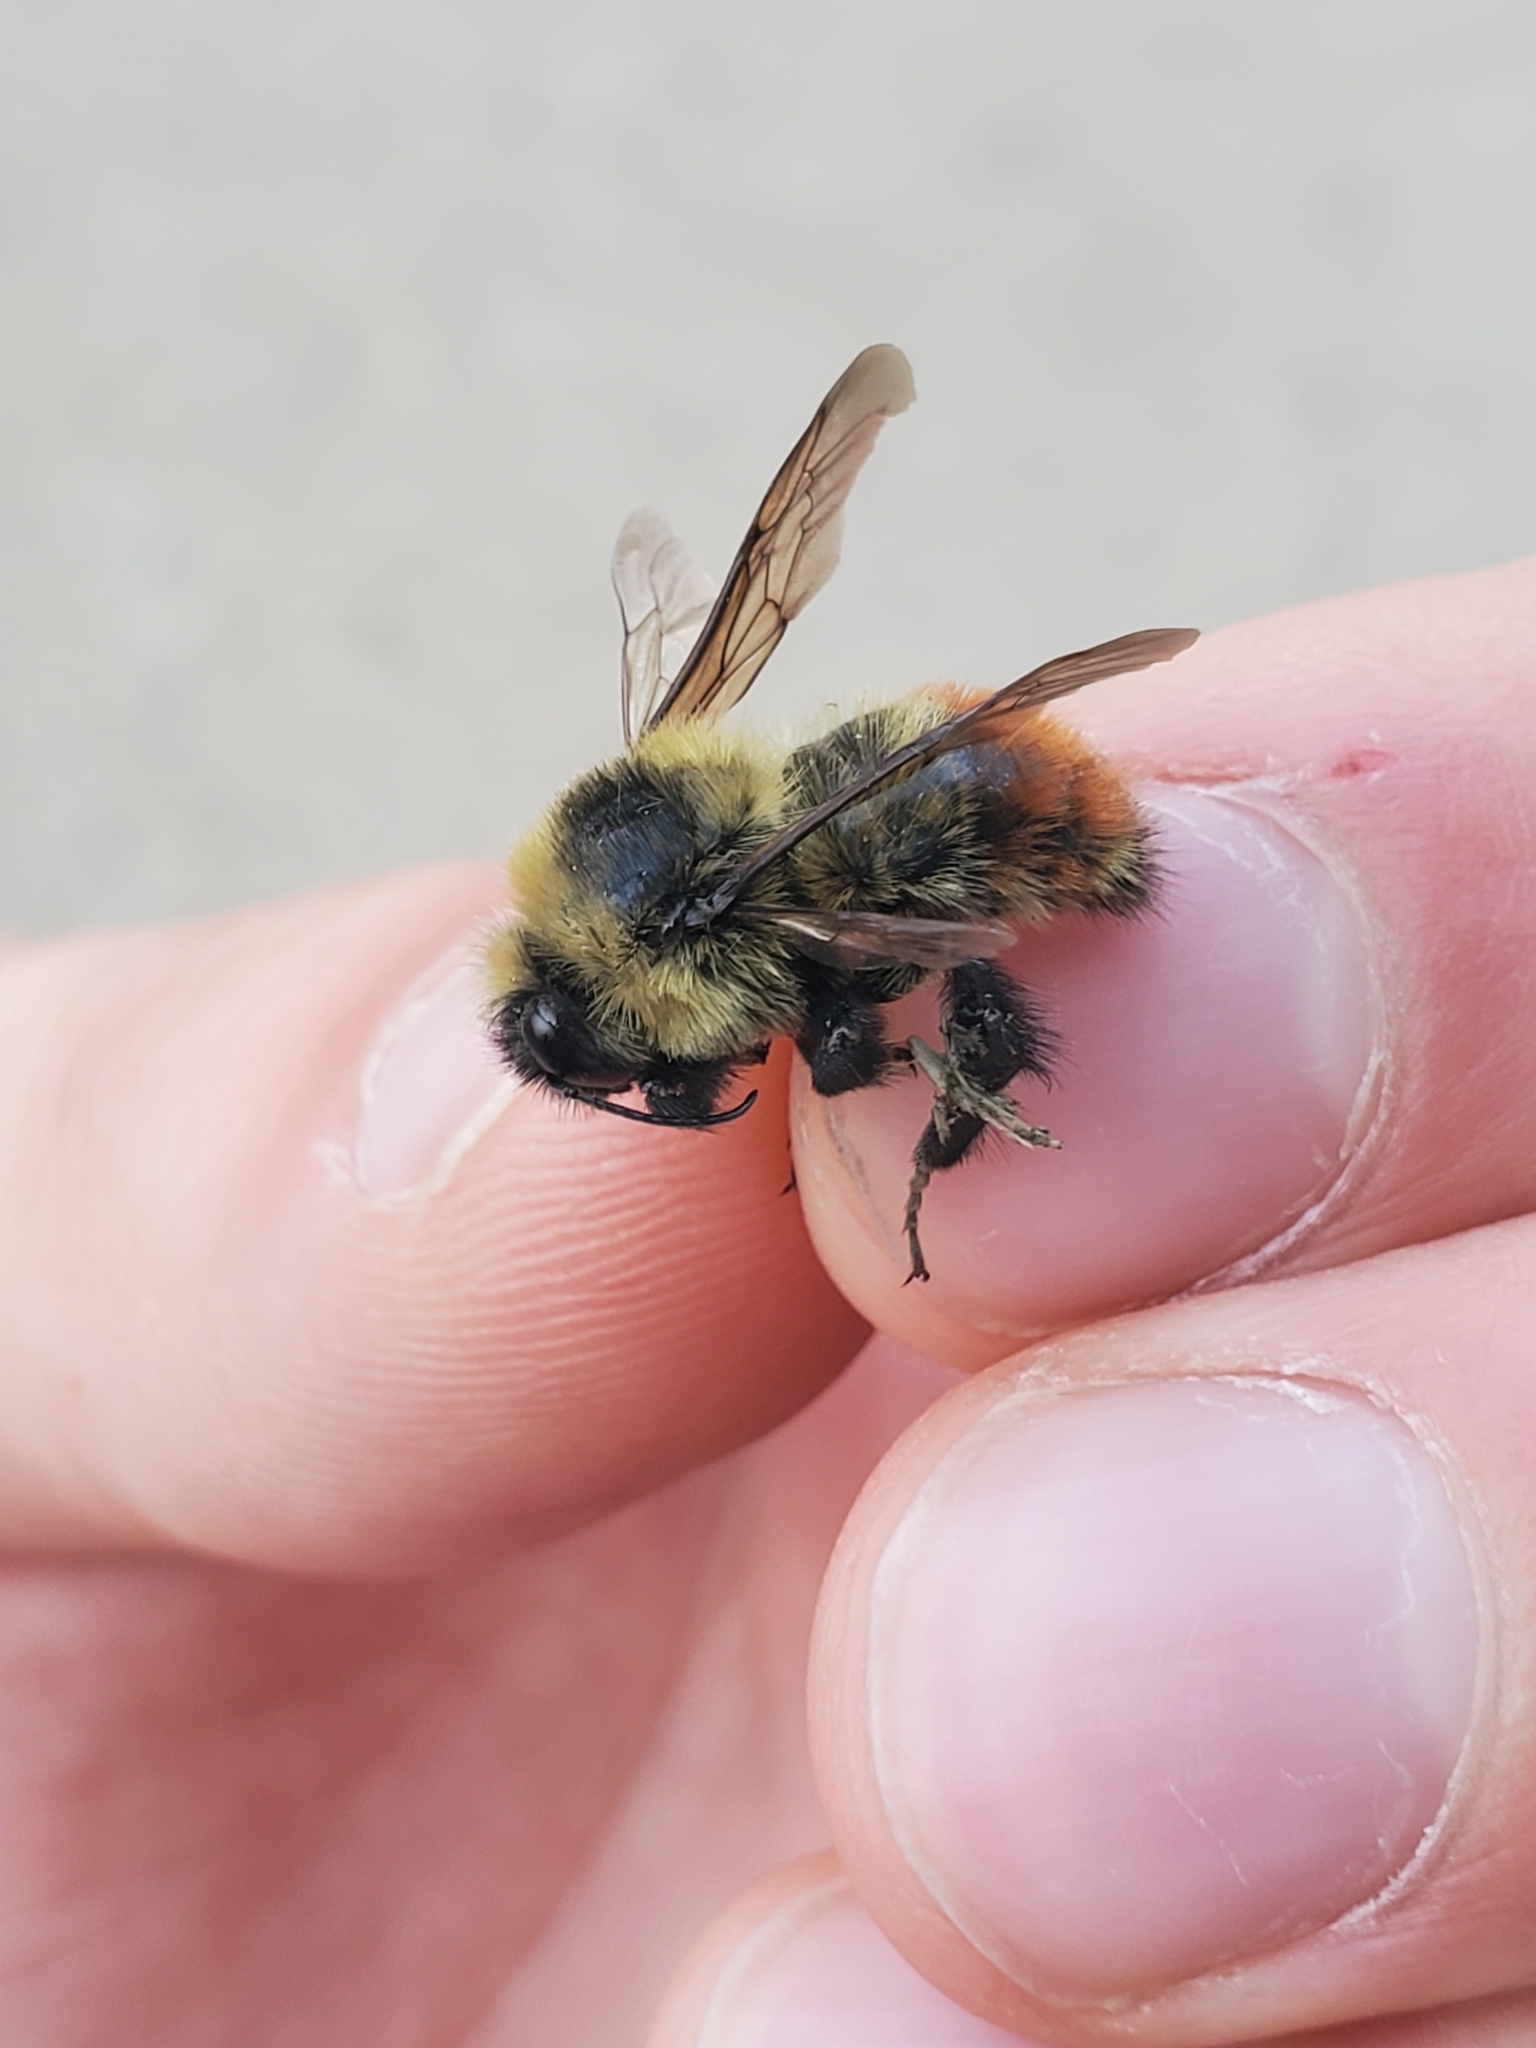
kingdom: Animalia
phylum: Arthropoda
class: Insecta
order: Hymenoptera
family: Apidae
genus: Bombus
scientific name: Bombus rufocinctus
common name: Red-belted bumble bee
